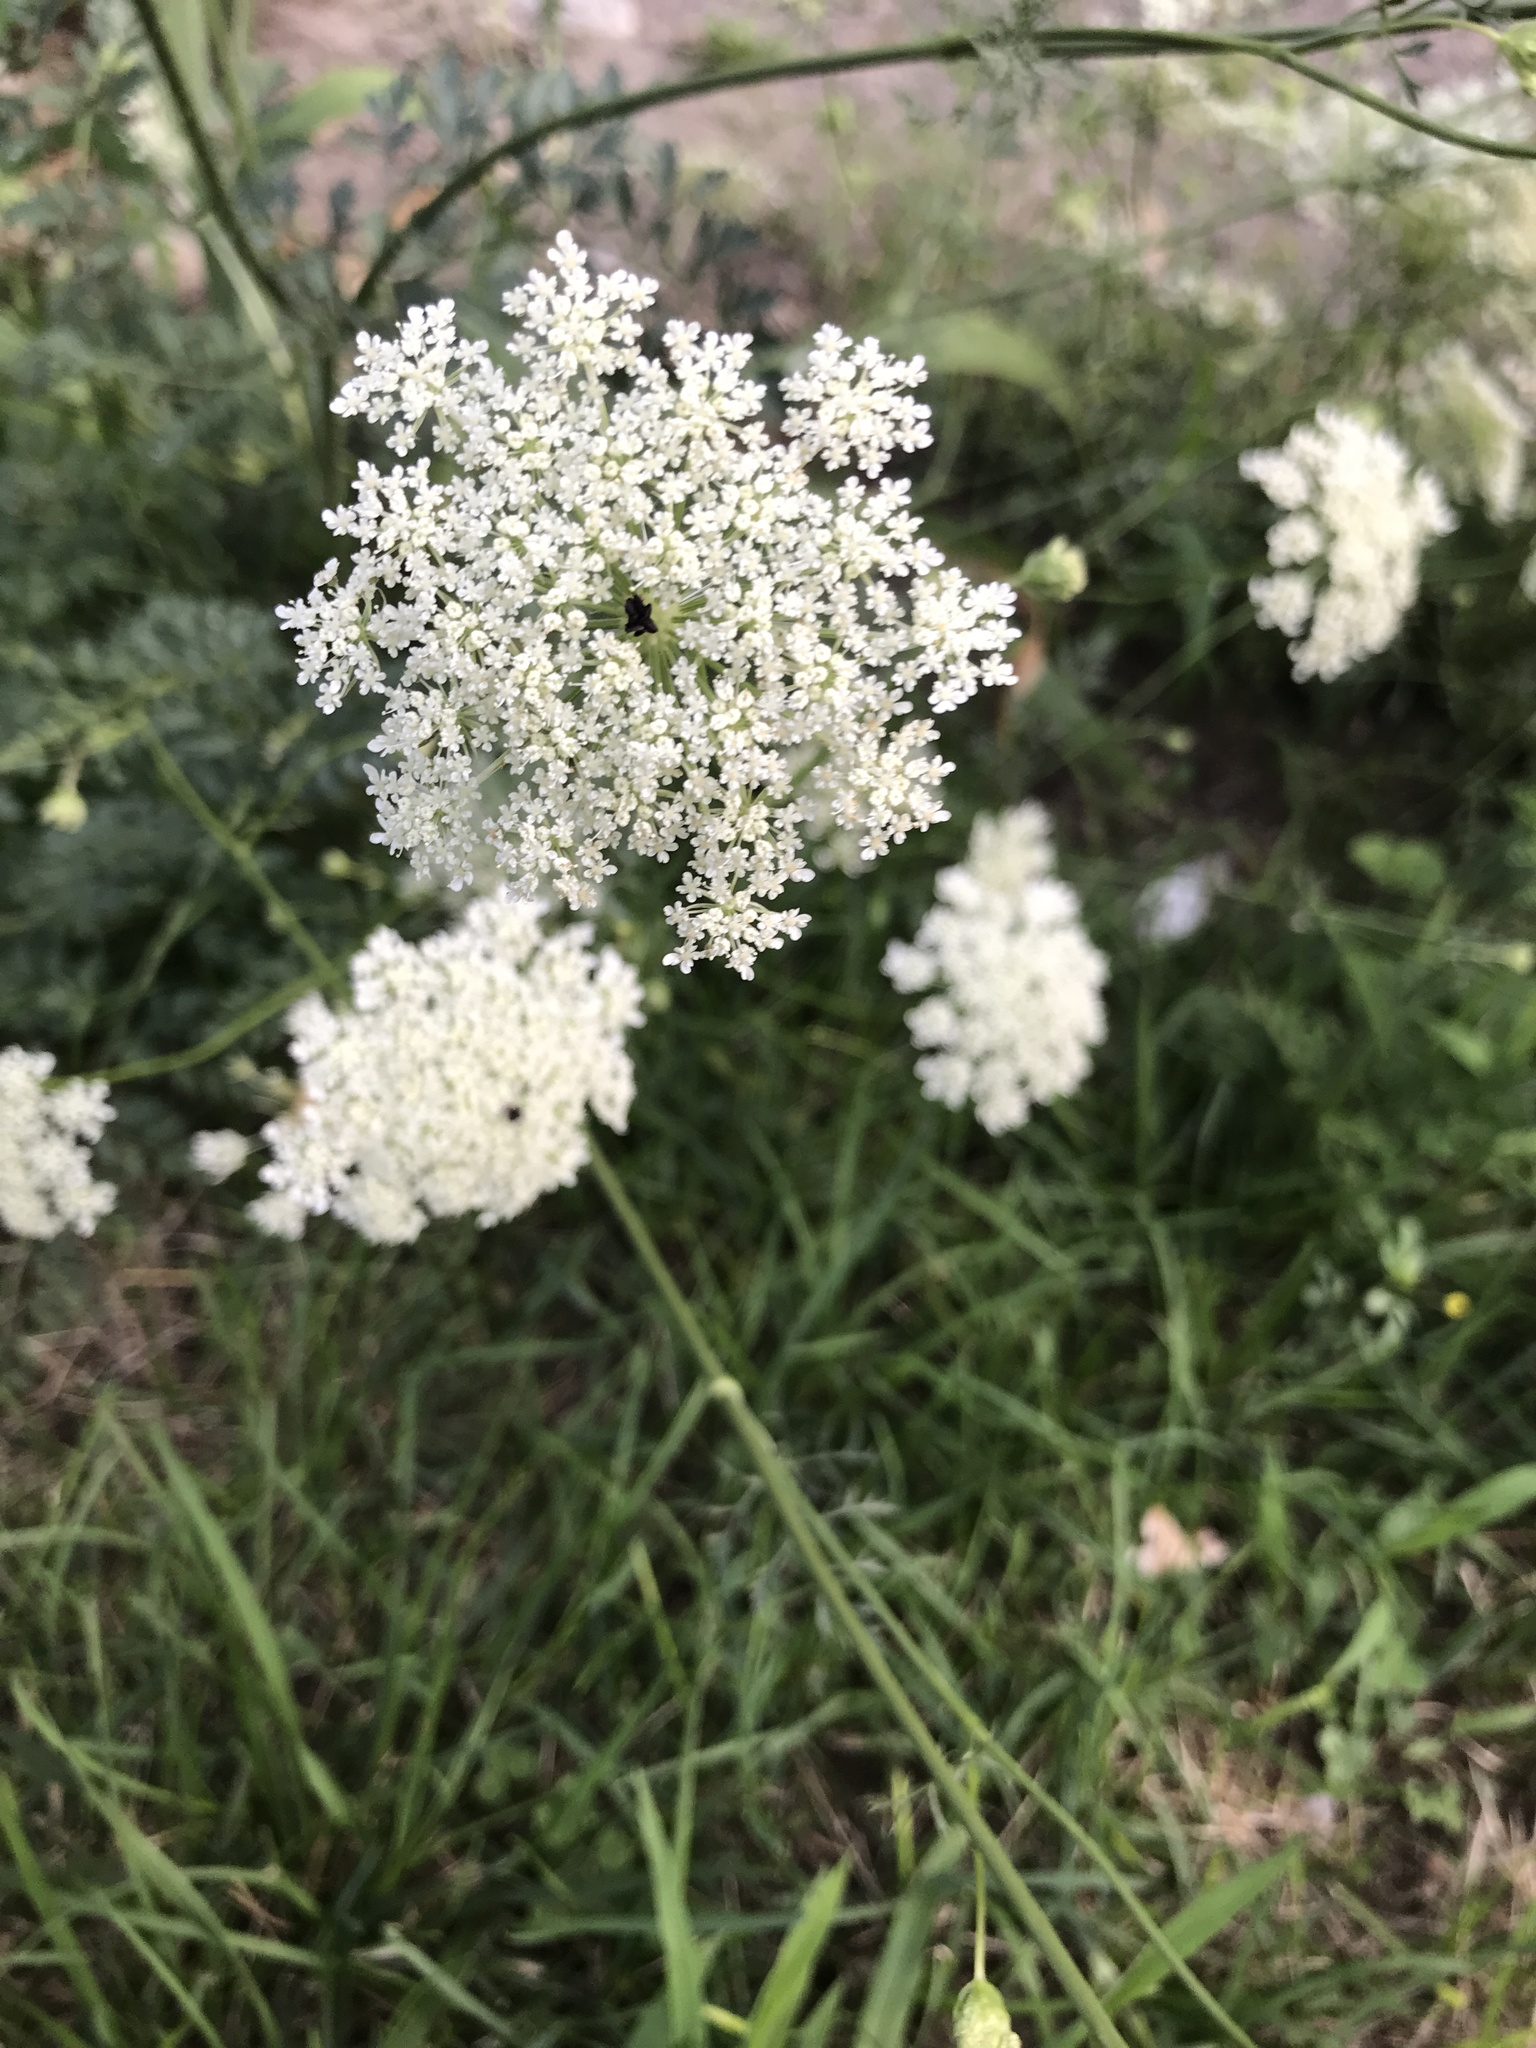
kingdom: Plantae
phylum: Tracheophyta
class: Magnoliopsida
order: Apiales
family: Apiaceae
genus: Daucus
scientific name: Daucus carota
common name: Wild carrot
